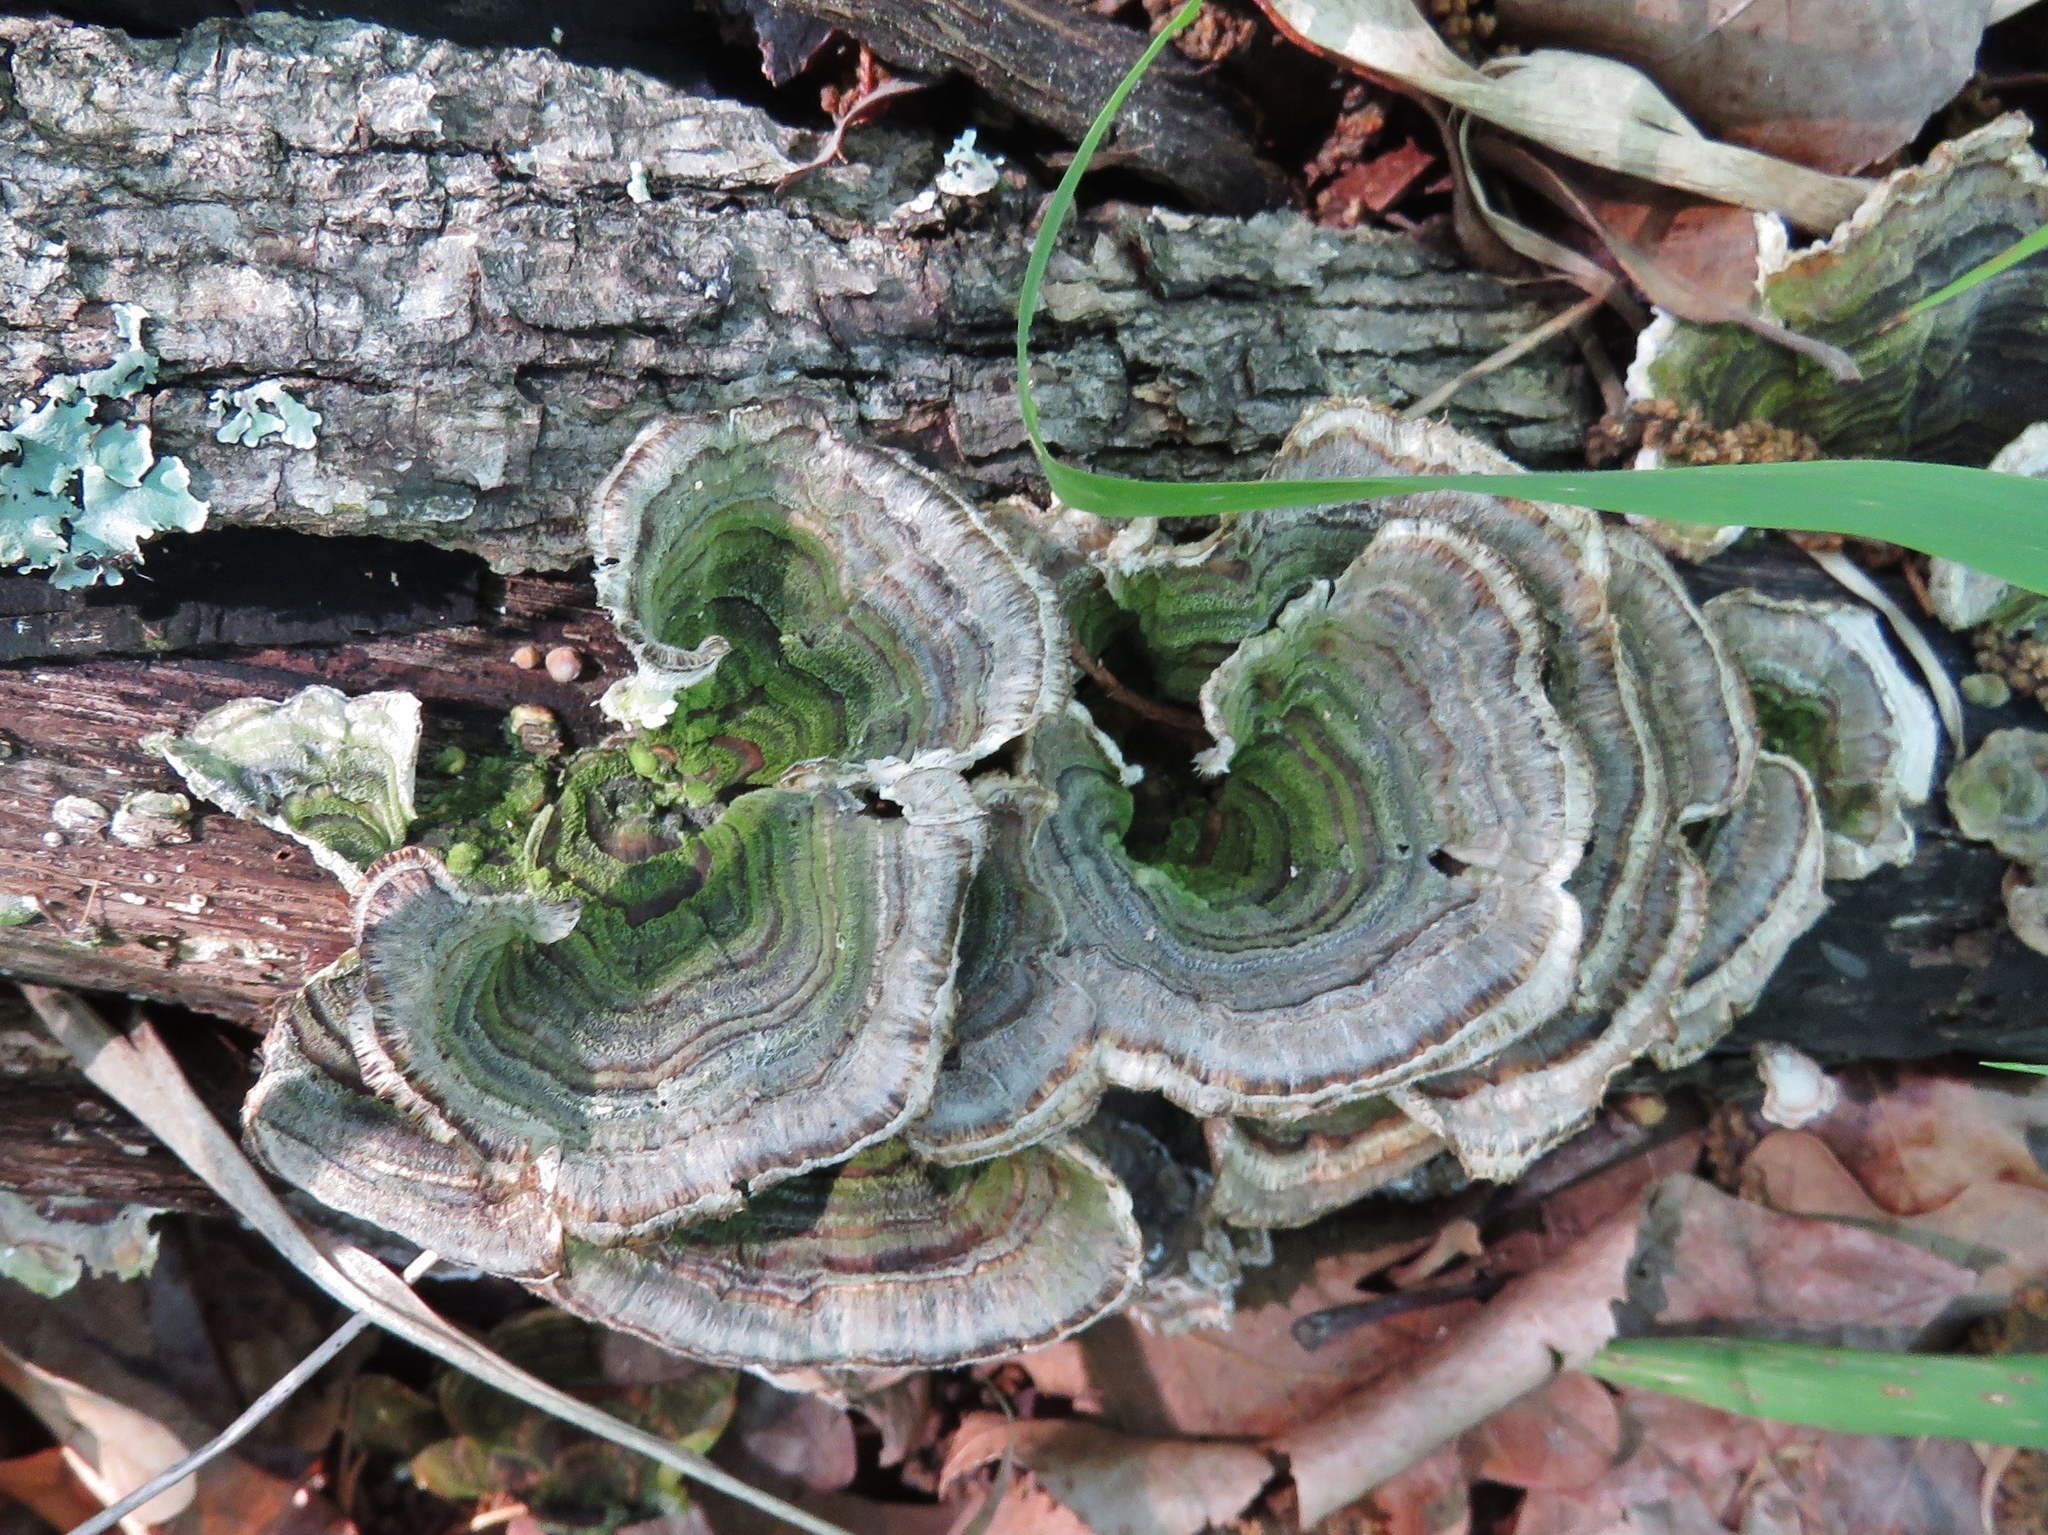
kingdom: Fungi
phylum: Basidiomycota
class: Agaricomycetes
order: Polyporales
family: Polyporaceae
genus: Trametes
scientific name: Trametes versicolor
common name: Turkeytail
